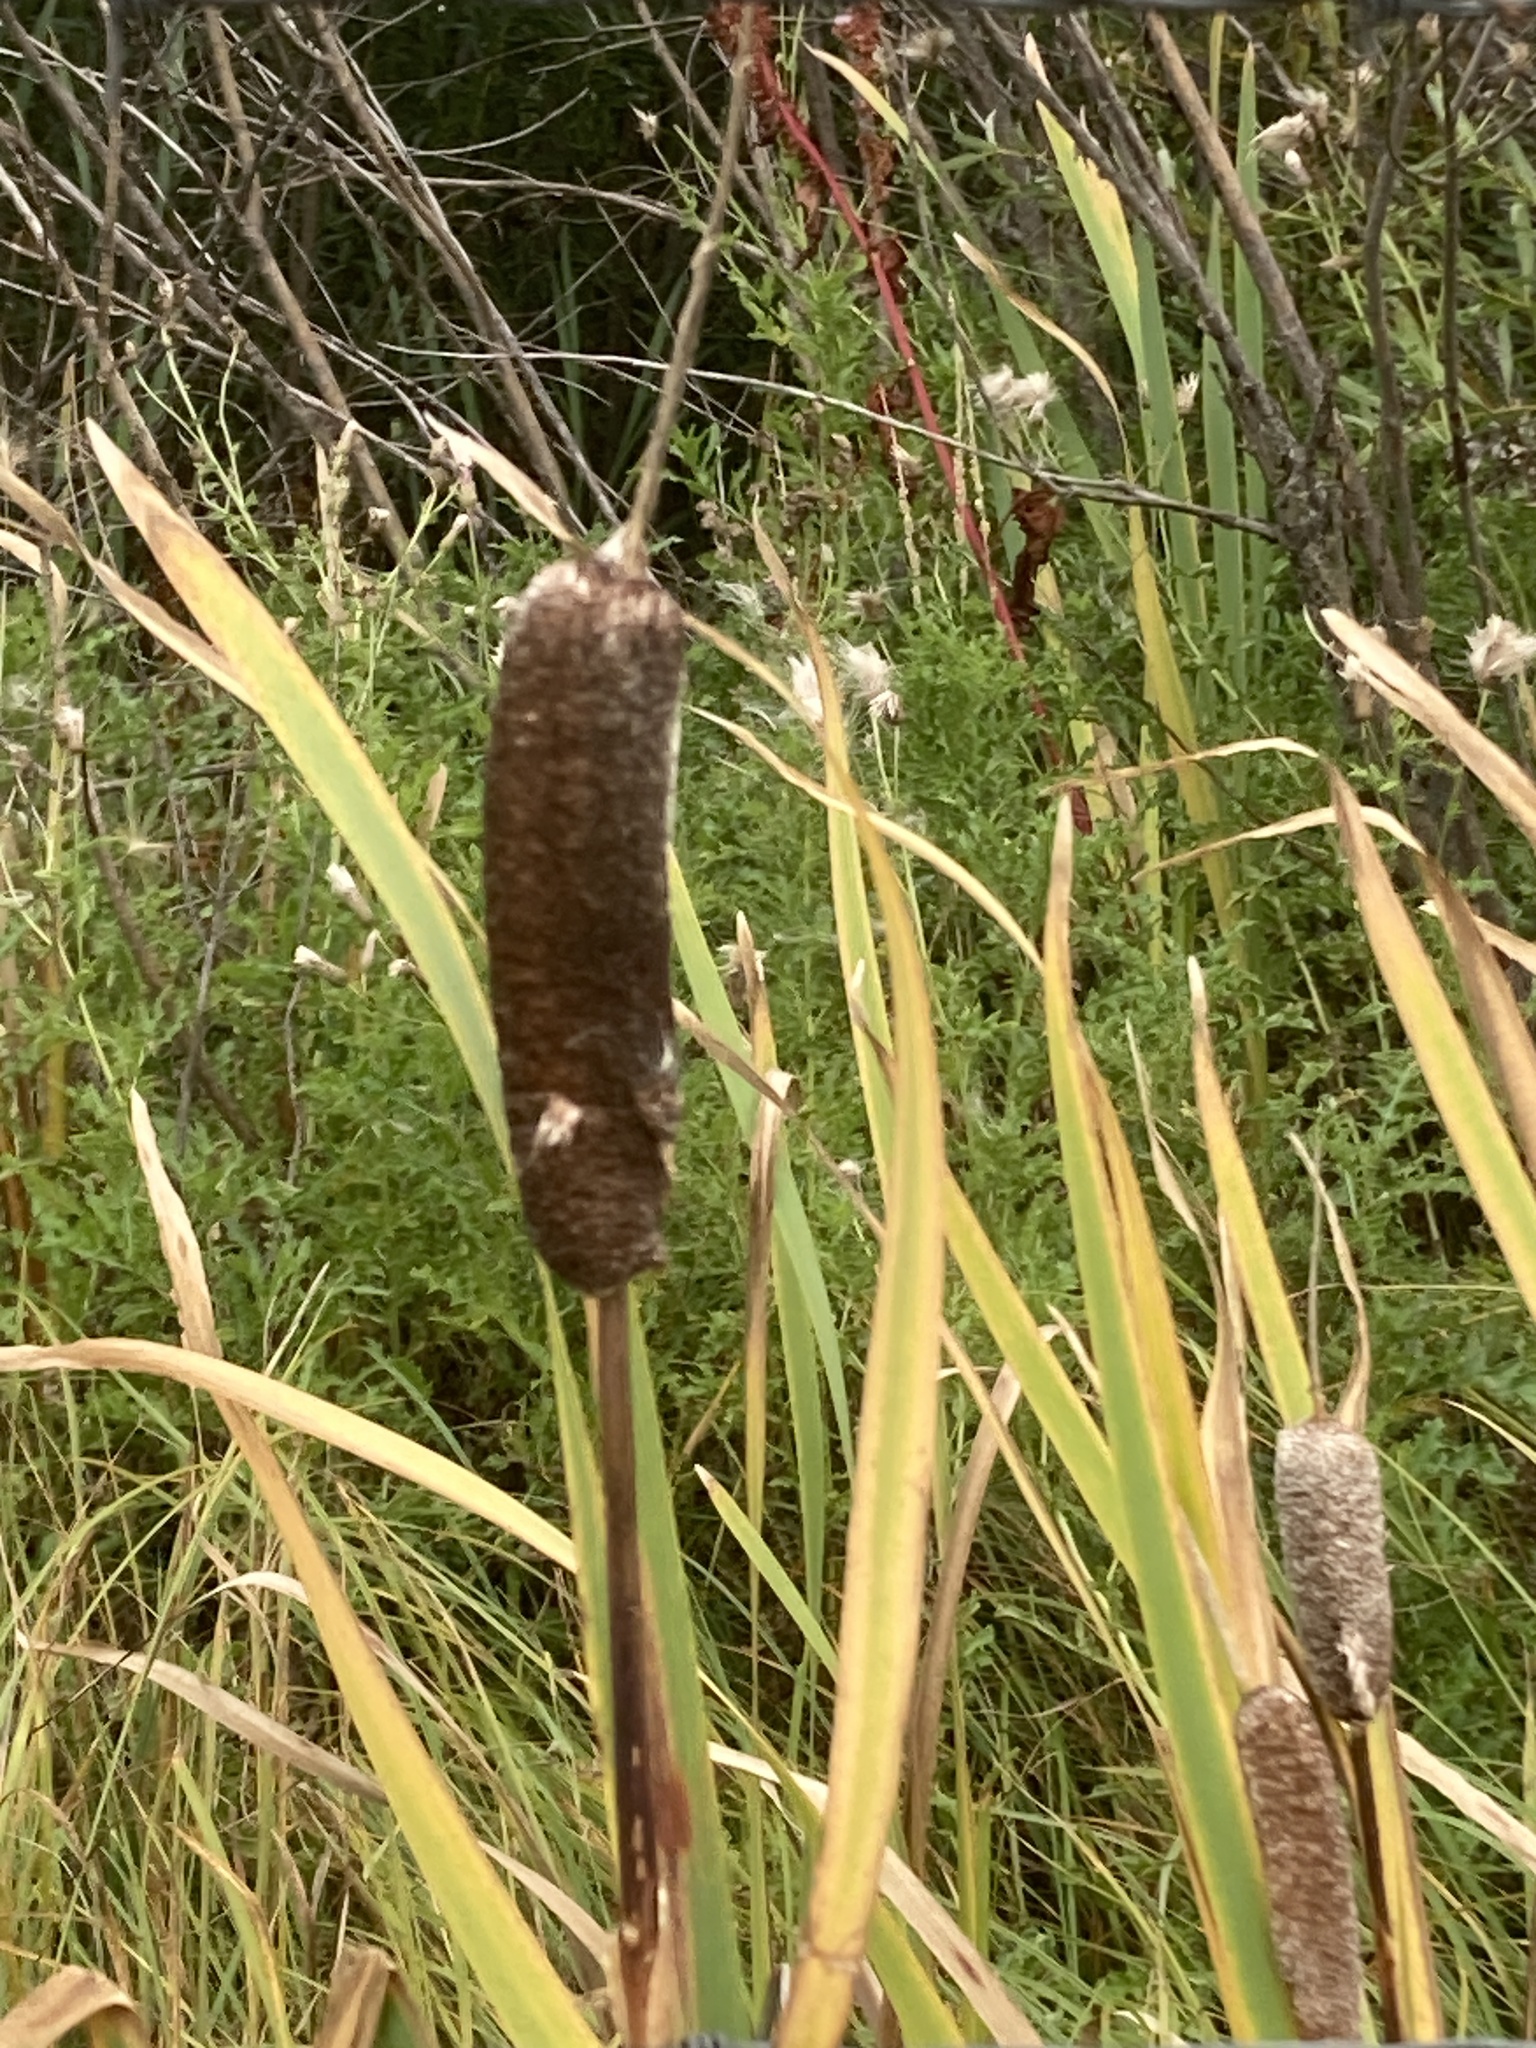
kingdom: Plantae
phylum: Tracheophyta
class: Liliopsida
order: Poales
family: Typhaceae
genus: Typha
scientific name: Typha latifolia
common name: Broadleaf cattail
